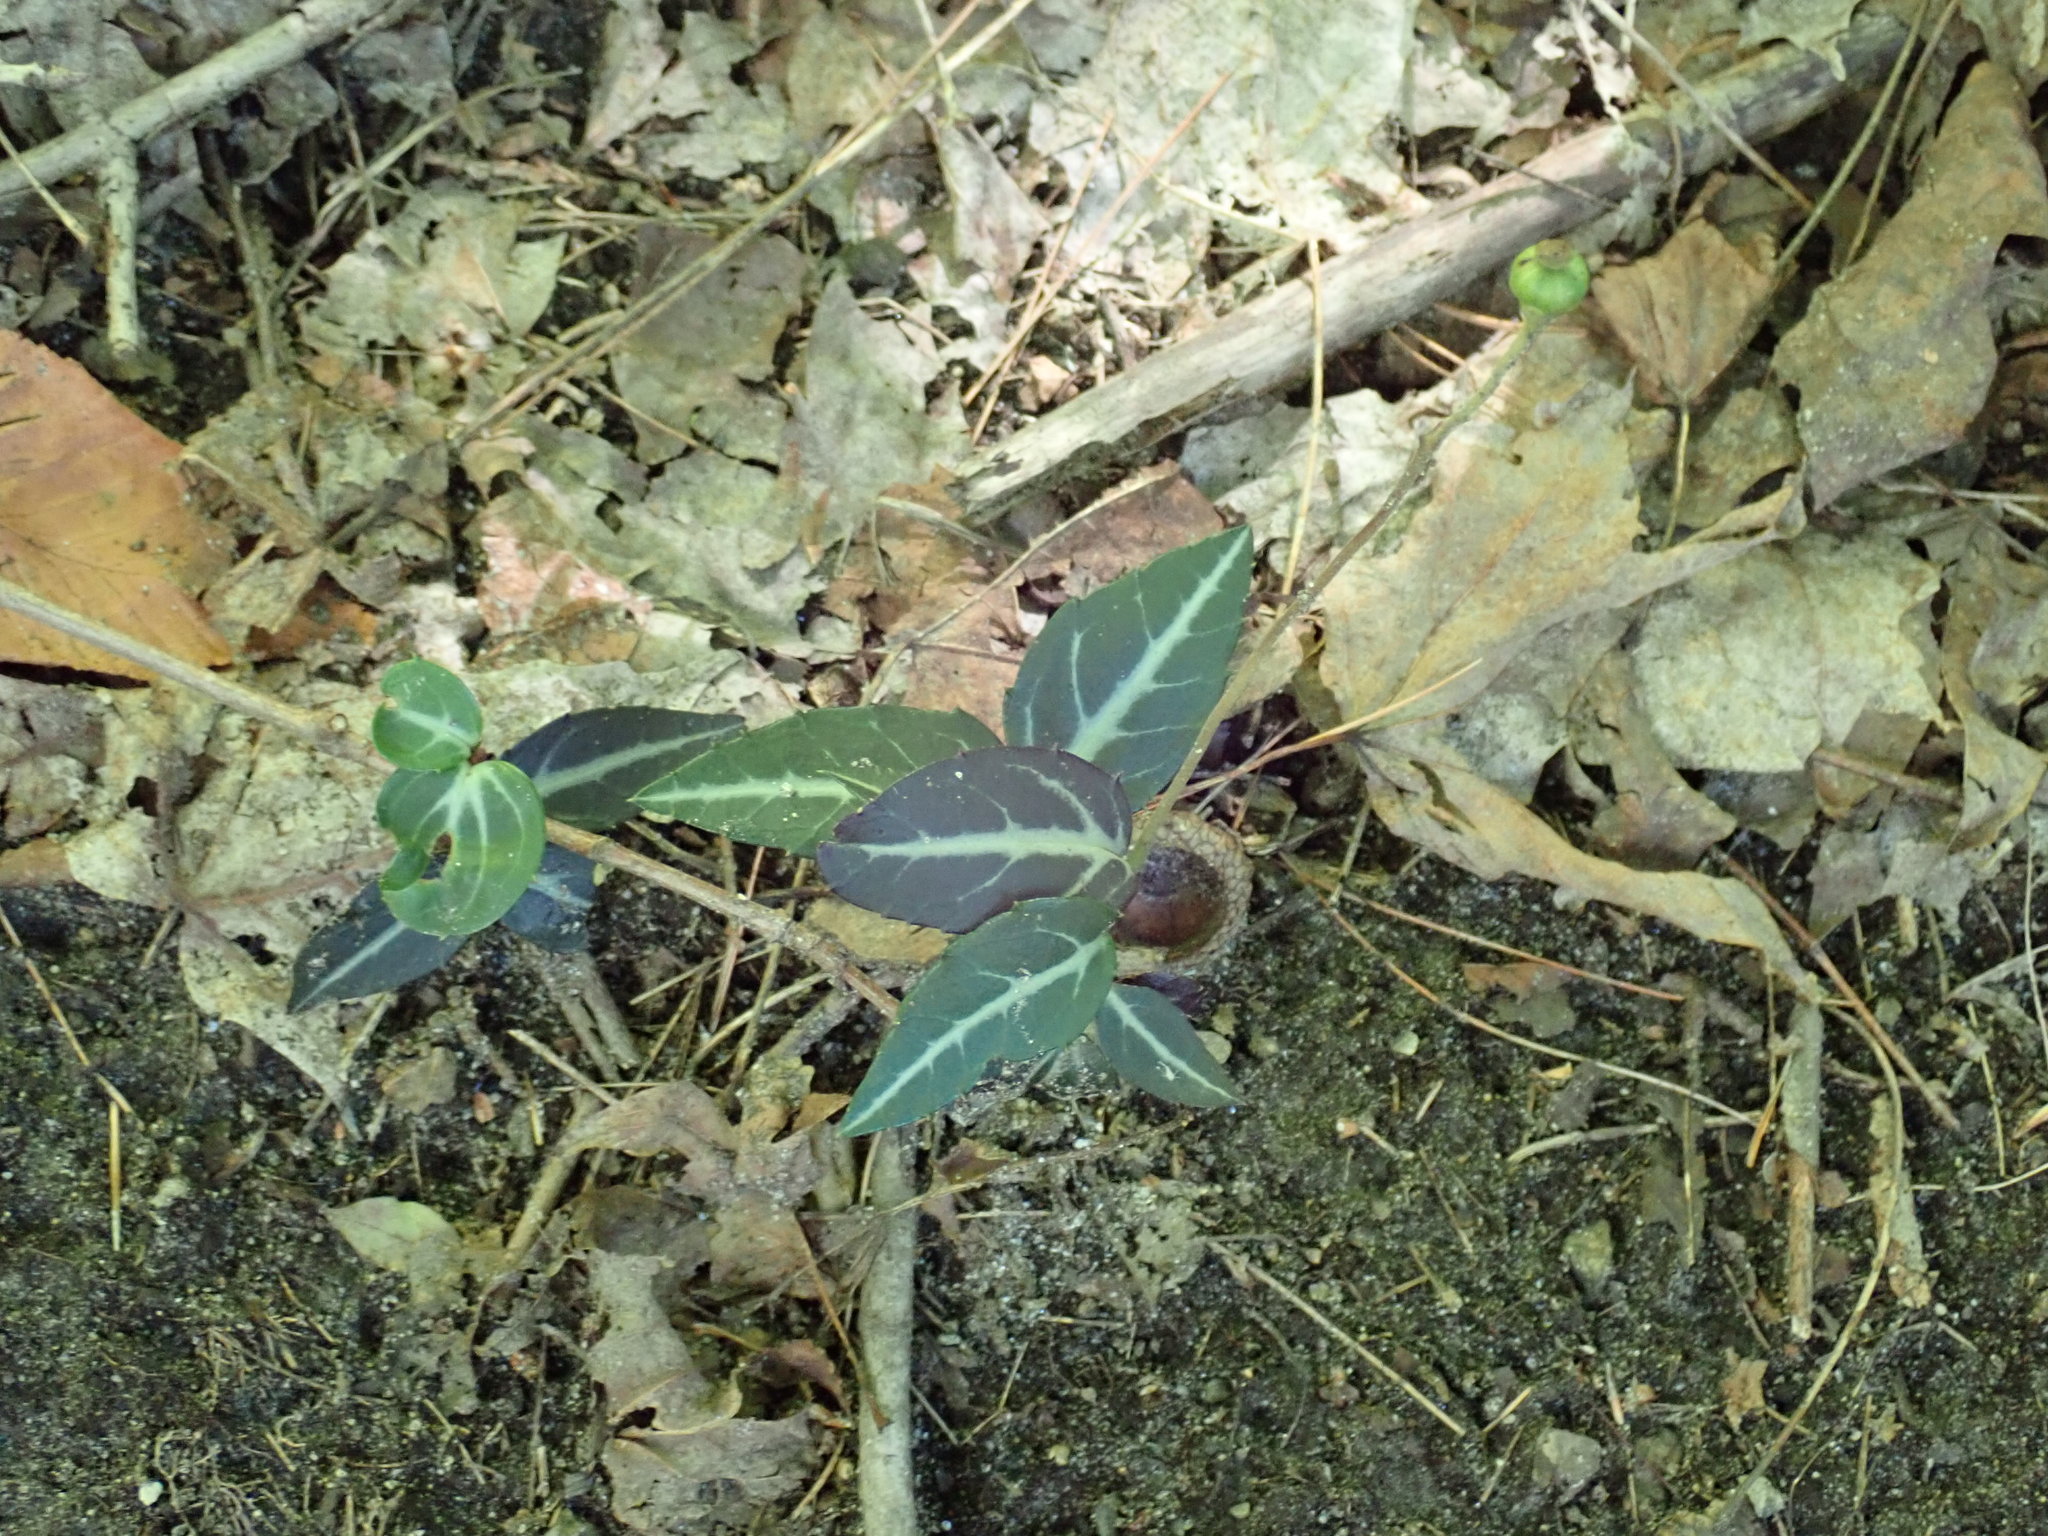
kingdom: Plantae
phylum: Tracheophyta
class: Magnoliopsida
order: Ericales
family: Ericaceae
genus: Chimaphila
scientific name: Chimaphila maculata
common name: Spotted pipsissewa
